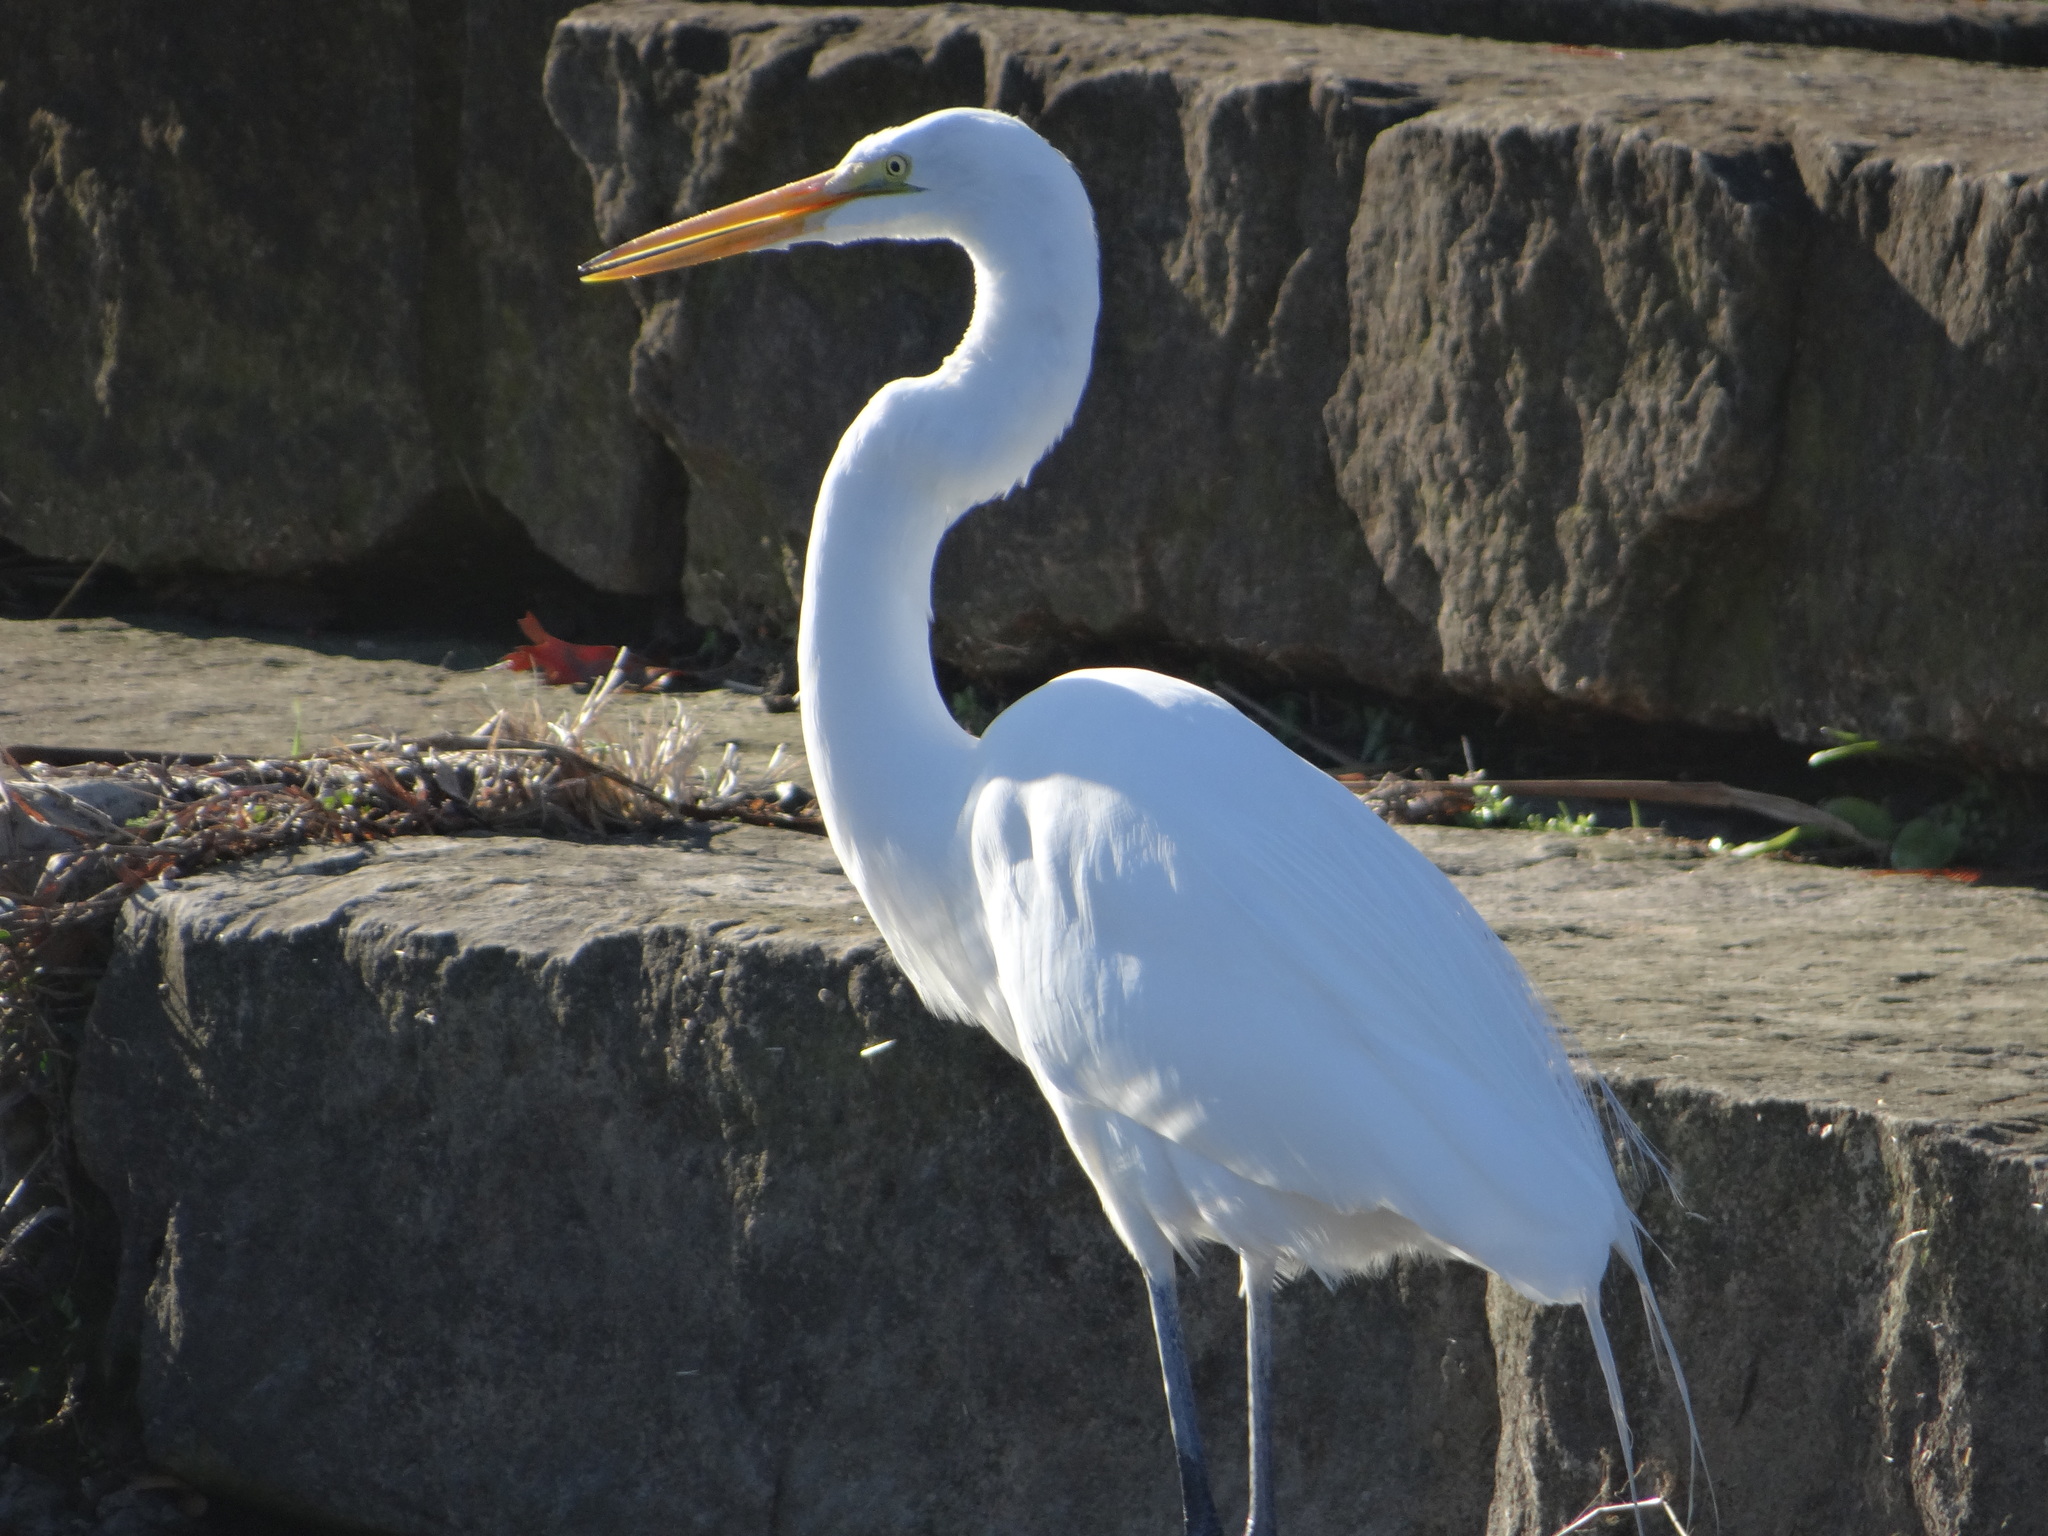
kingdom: Animalia
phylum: Chordata
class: Aves
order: Pelecaniformes
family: Ardeidae
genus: Ardea
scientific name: Ardea alba
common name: Great egret
